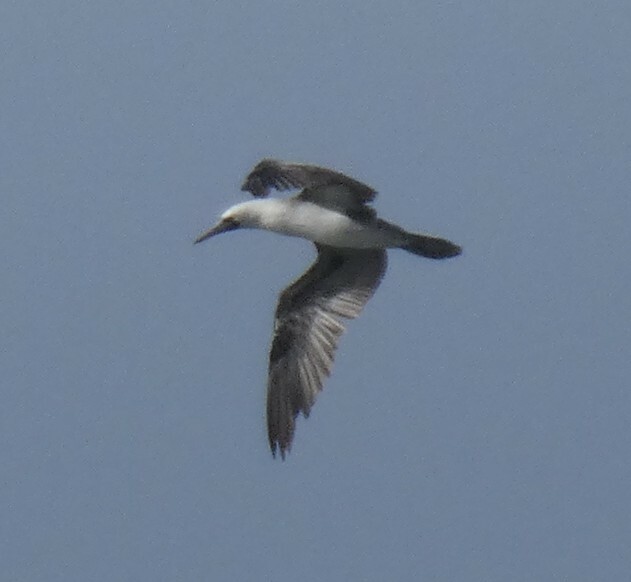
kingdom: Animalia
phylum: Chordata
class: Aves
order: Suliformes
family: Sulidae
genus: Sula
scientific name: Sula variegata
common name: Peruvian booby
